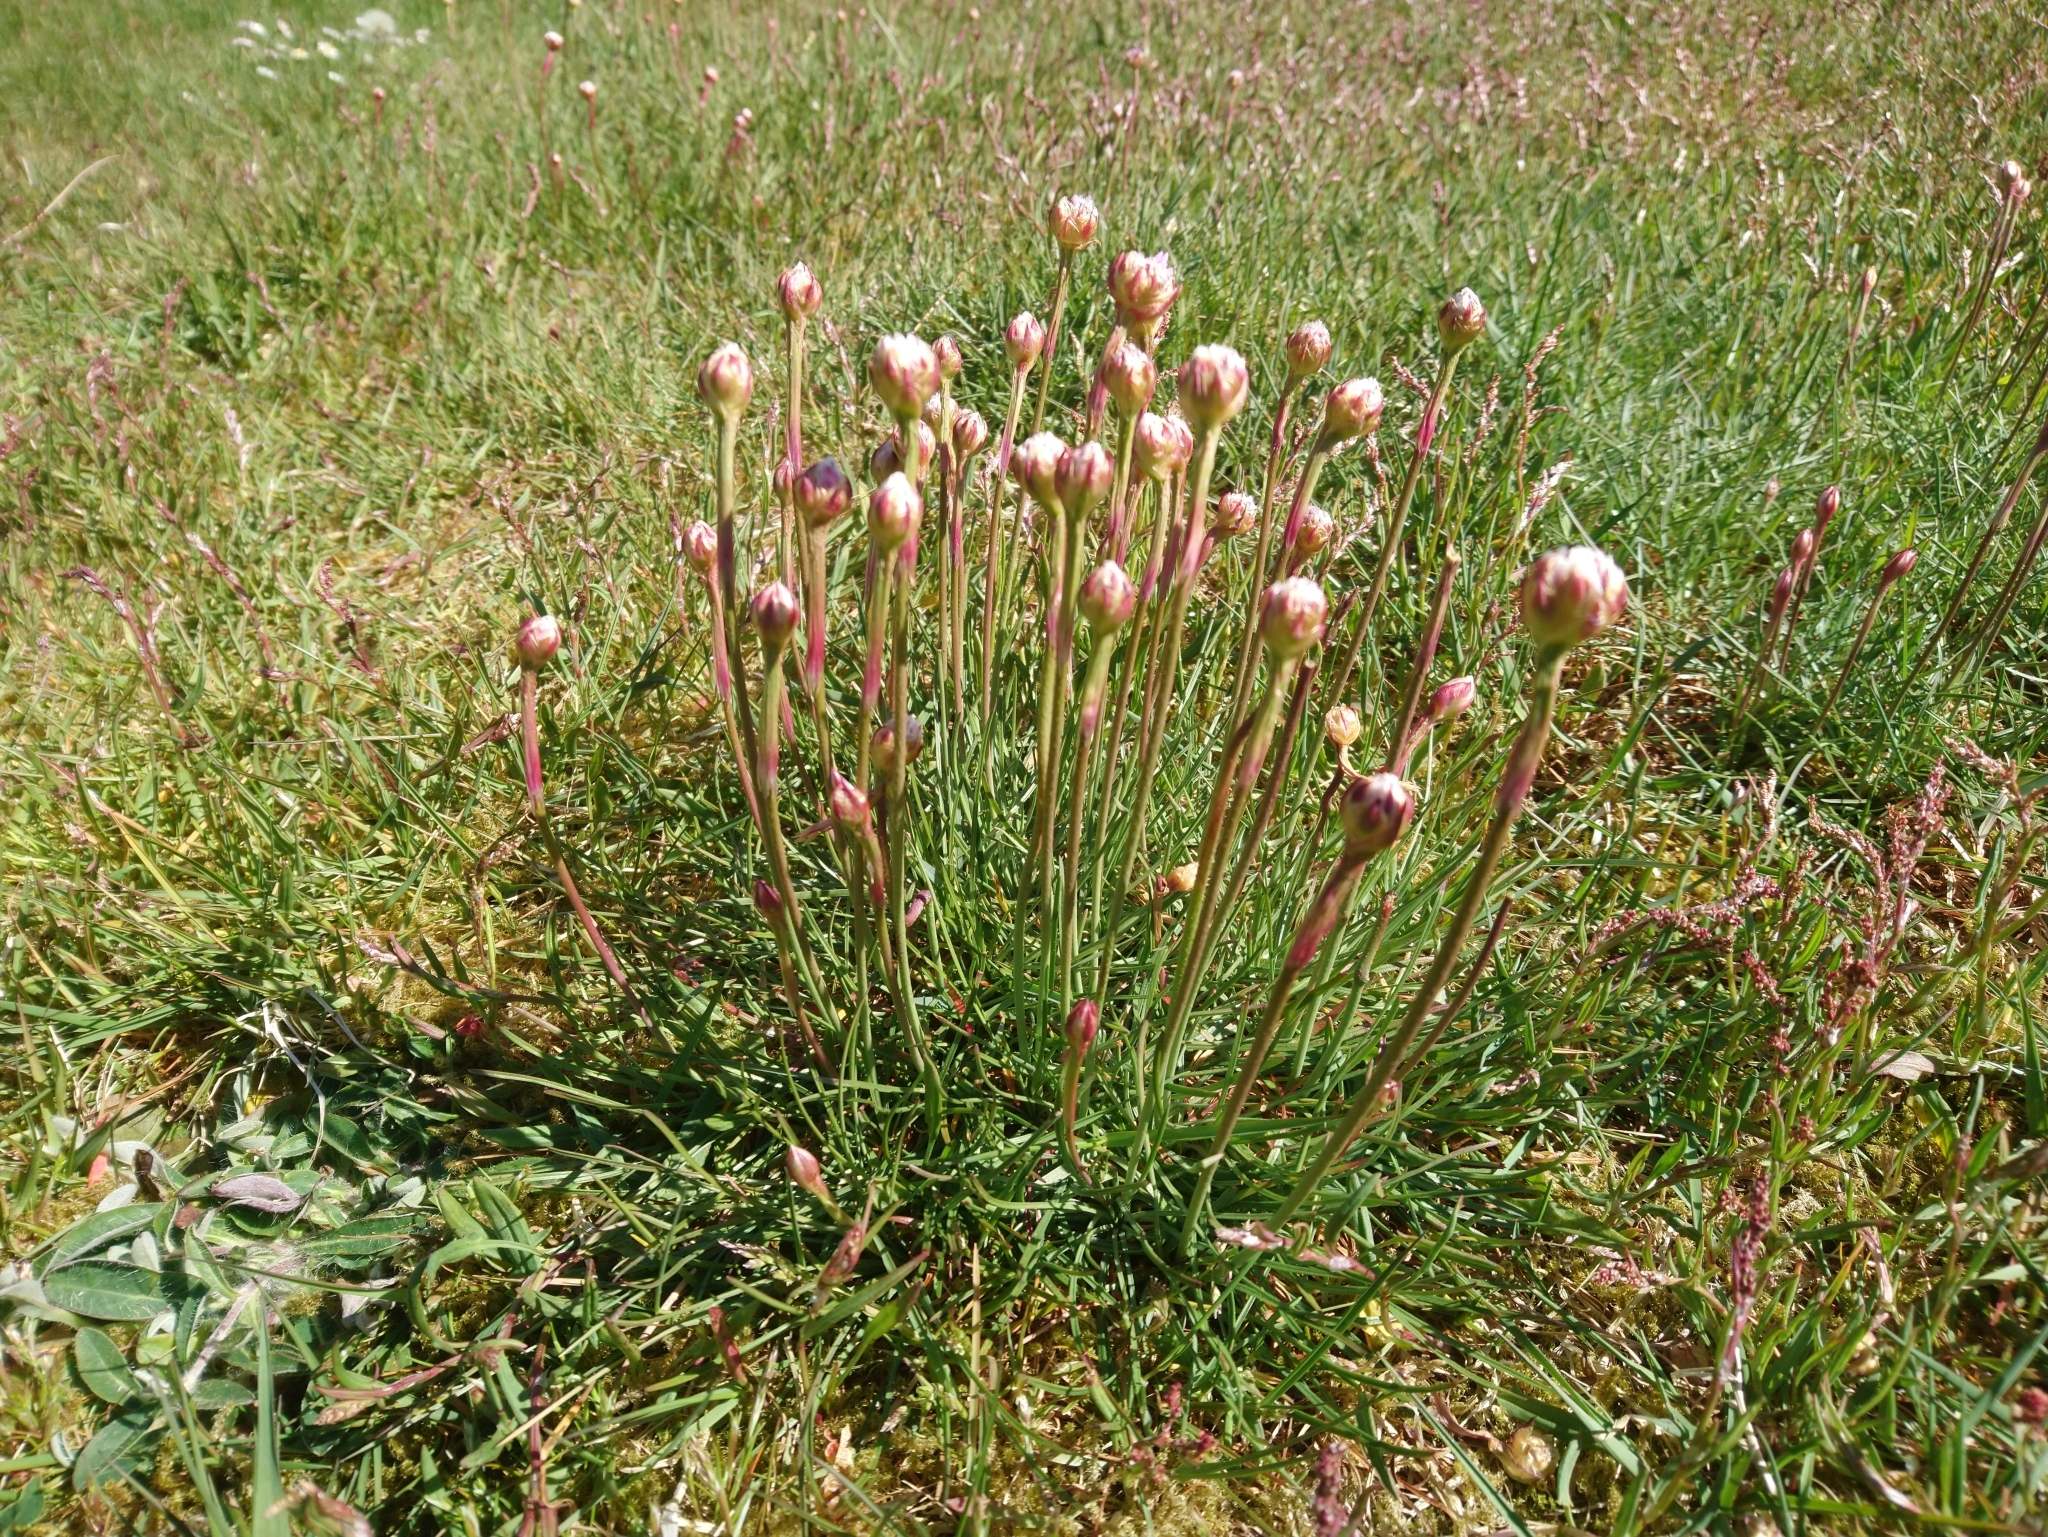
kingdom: Plantae
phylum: Tracheophyta
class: Magnoliopsida
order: Caryophyllales
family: Plumbaginaceae
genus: Armeria
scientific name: Armeria maritima
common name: Thrift
